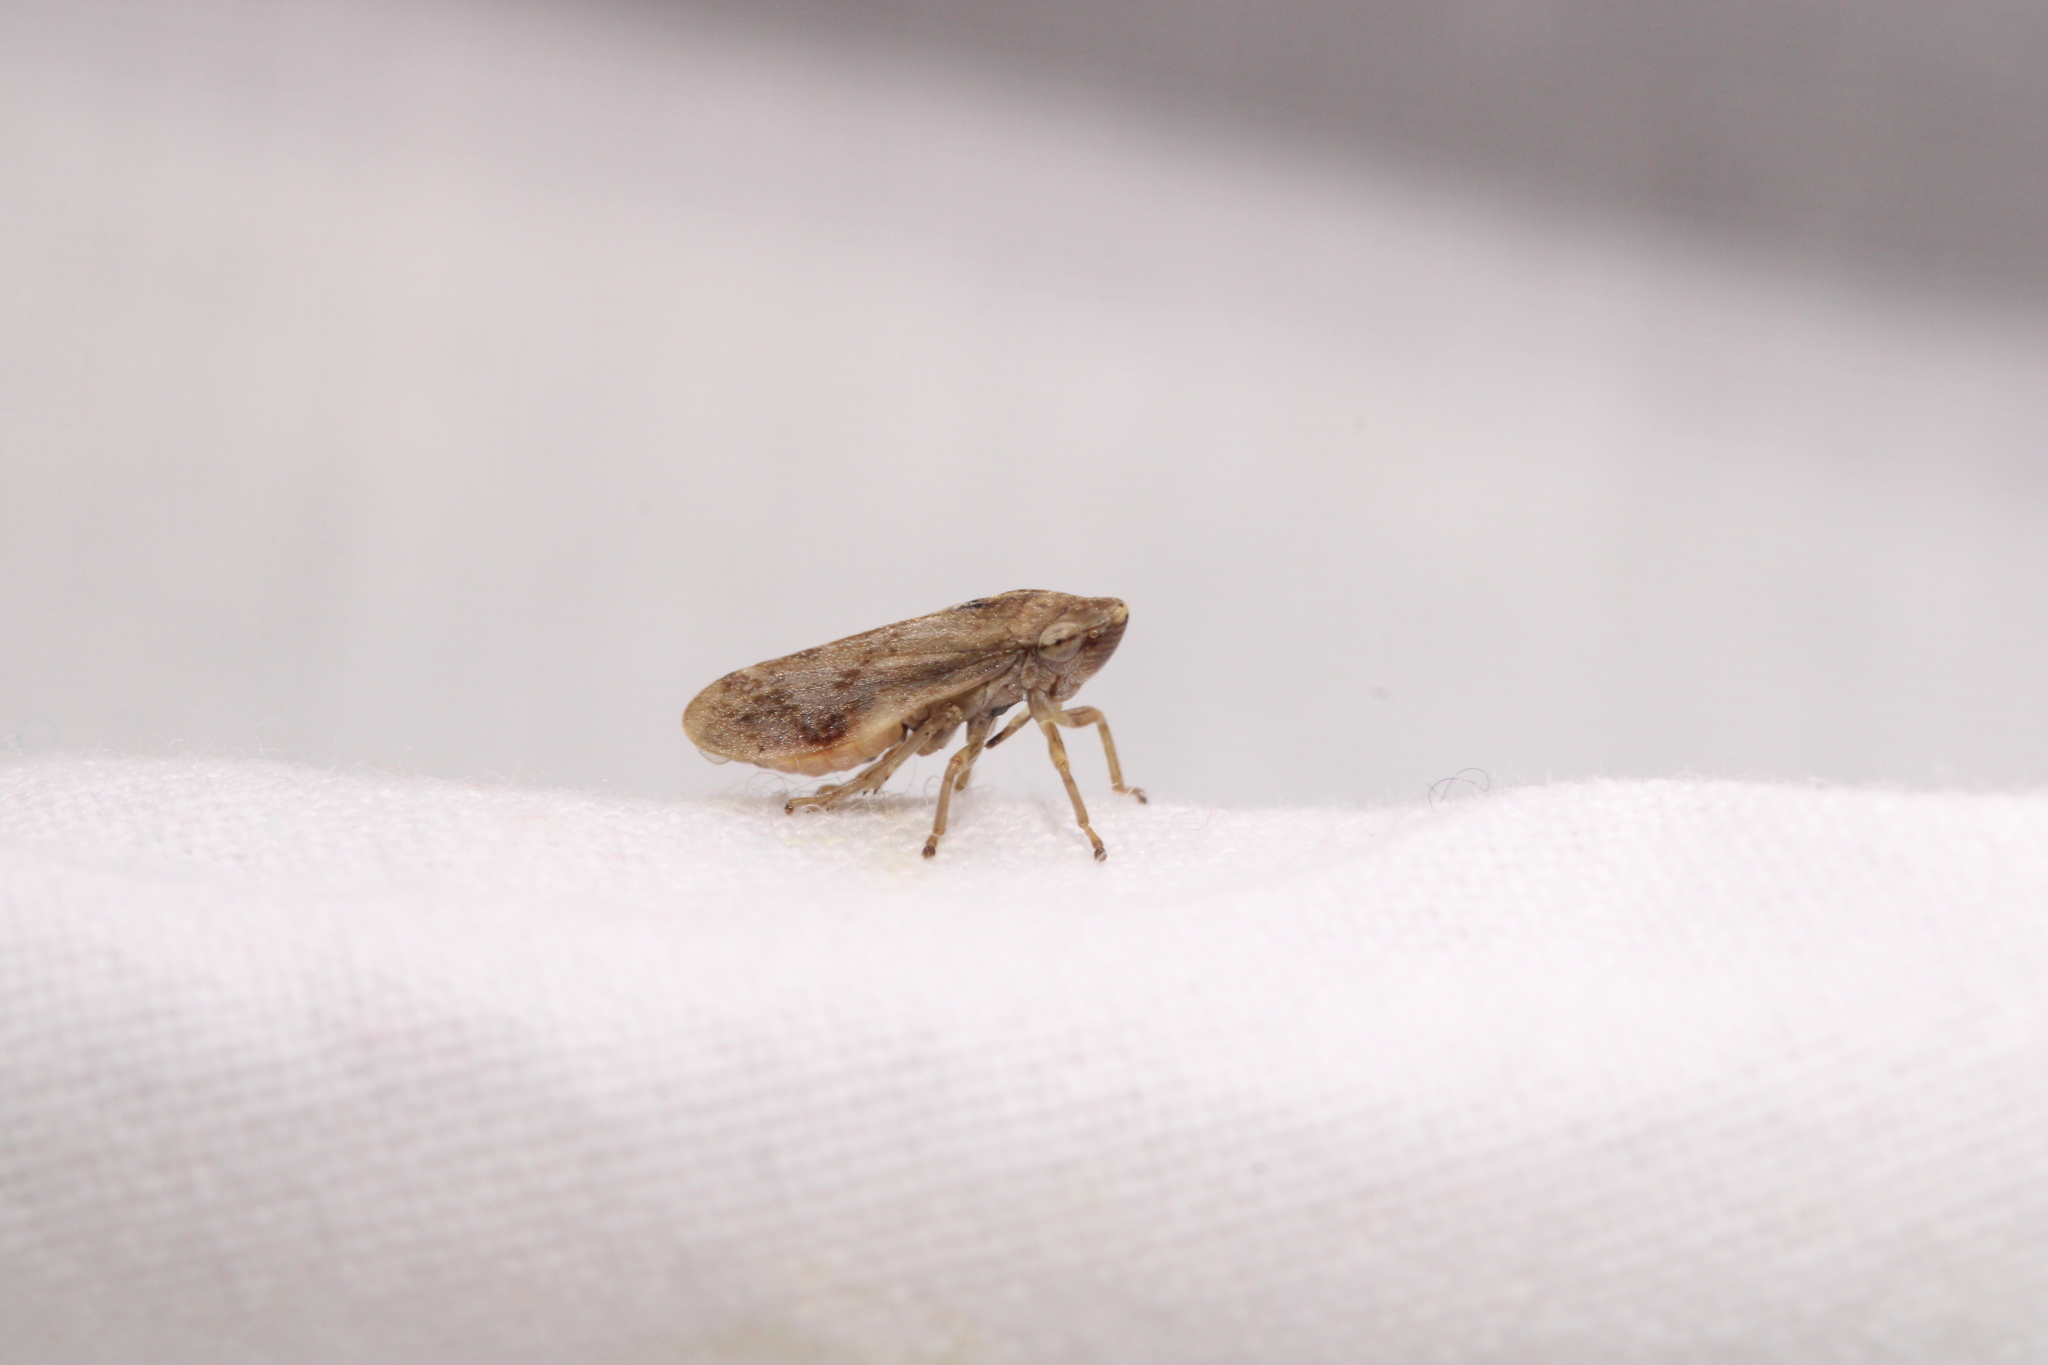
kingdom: Animalia
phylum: Arthropoda
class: Insecta
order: Hemiptera
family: Aphrophoridae
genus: Philaenus
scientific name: Philaenus spumarius
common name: Meadow spittlebug
